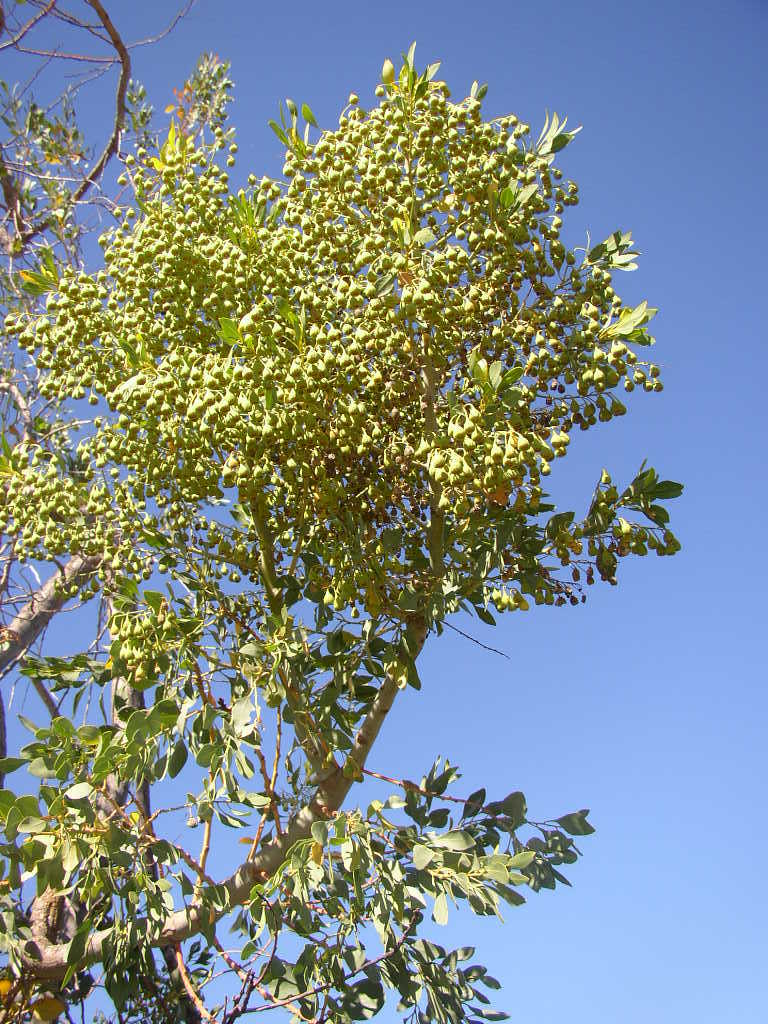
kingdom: Plantae
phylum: Tracheophyta
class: Magnoliopsida
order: Brassicales
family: Gyrostemonaceae
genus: Codonocarpus
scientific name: Codonocarpus cotinifolius
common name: Mustardtree
